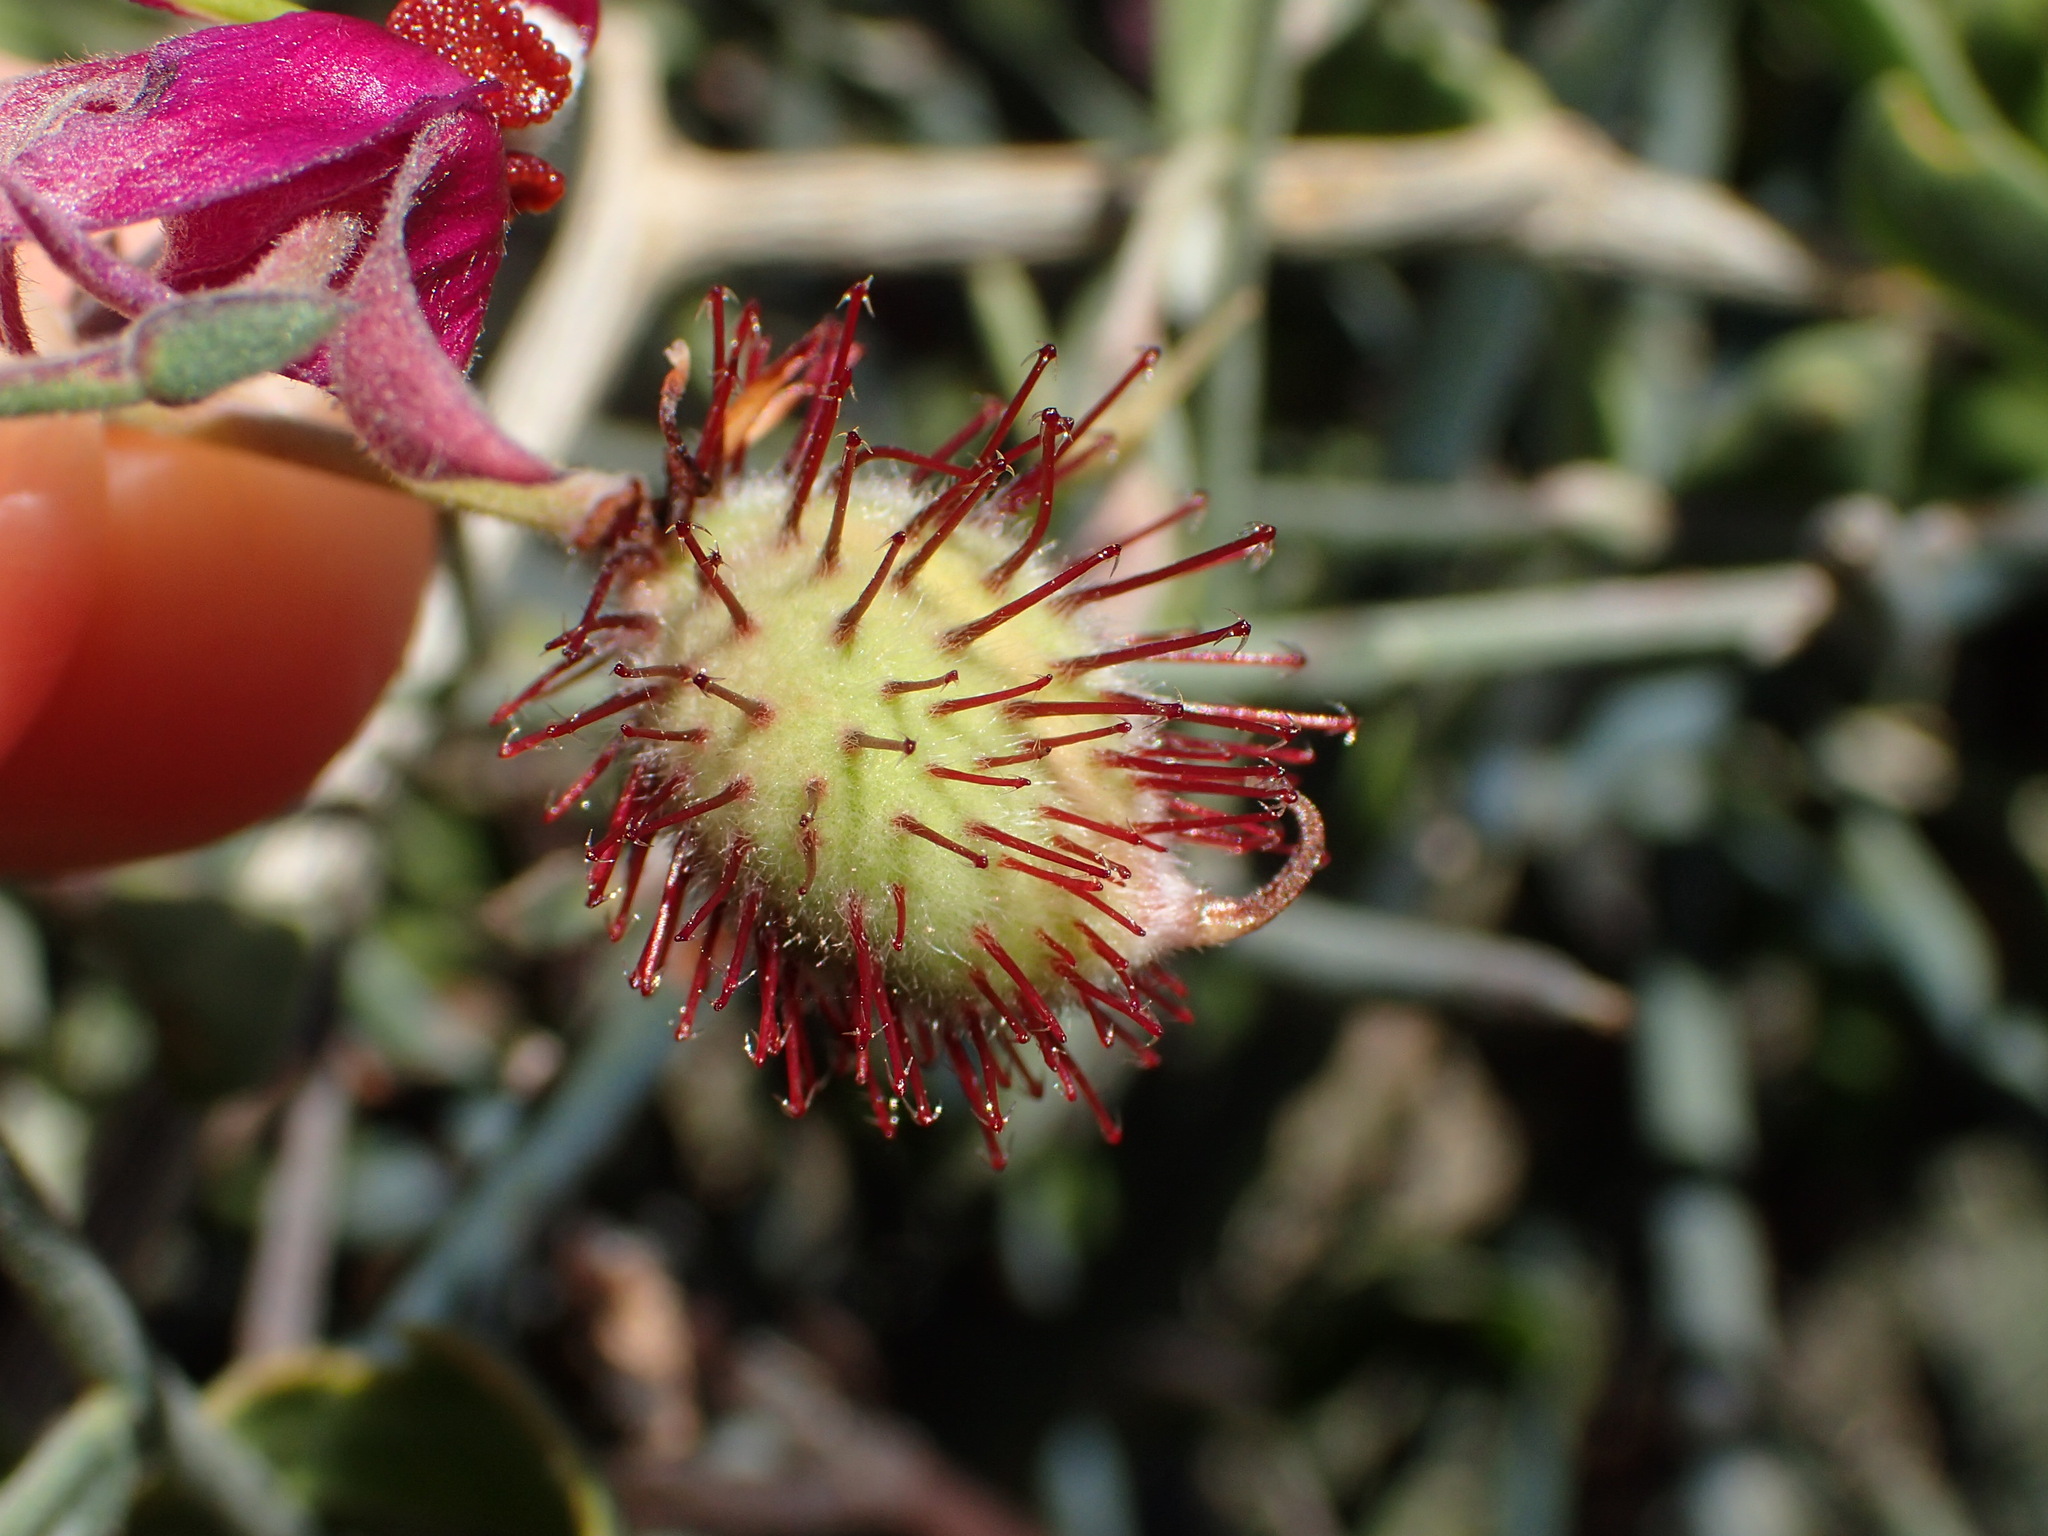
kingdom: Plantae
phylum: Tracheophyta
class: Magnoliopsida
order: Zygophyllales
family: Krameriaceae
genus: Krameria
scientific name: Krameria bicolor
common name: White ratany
